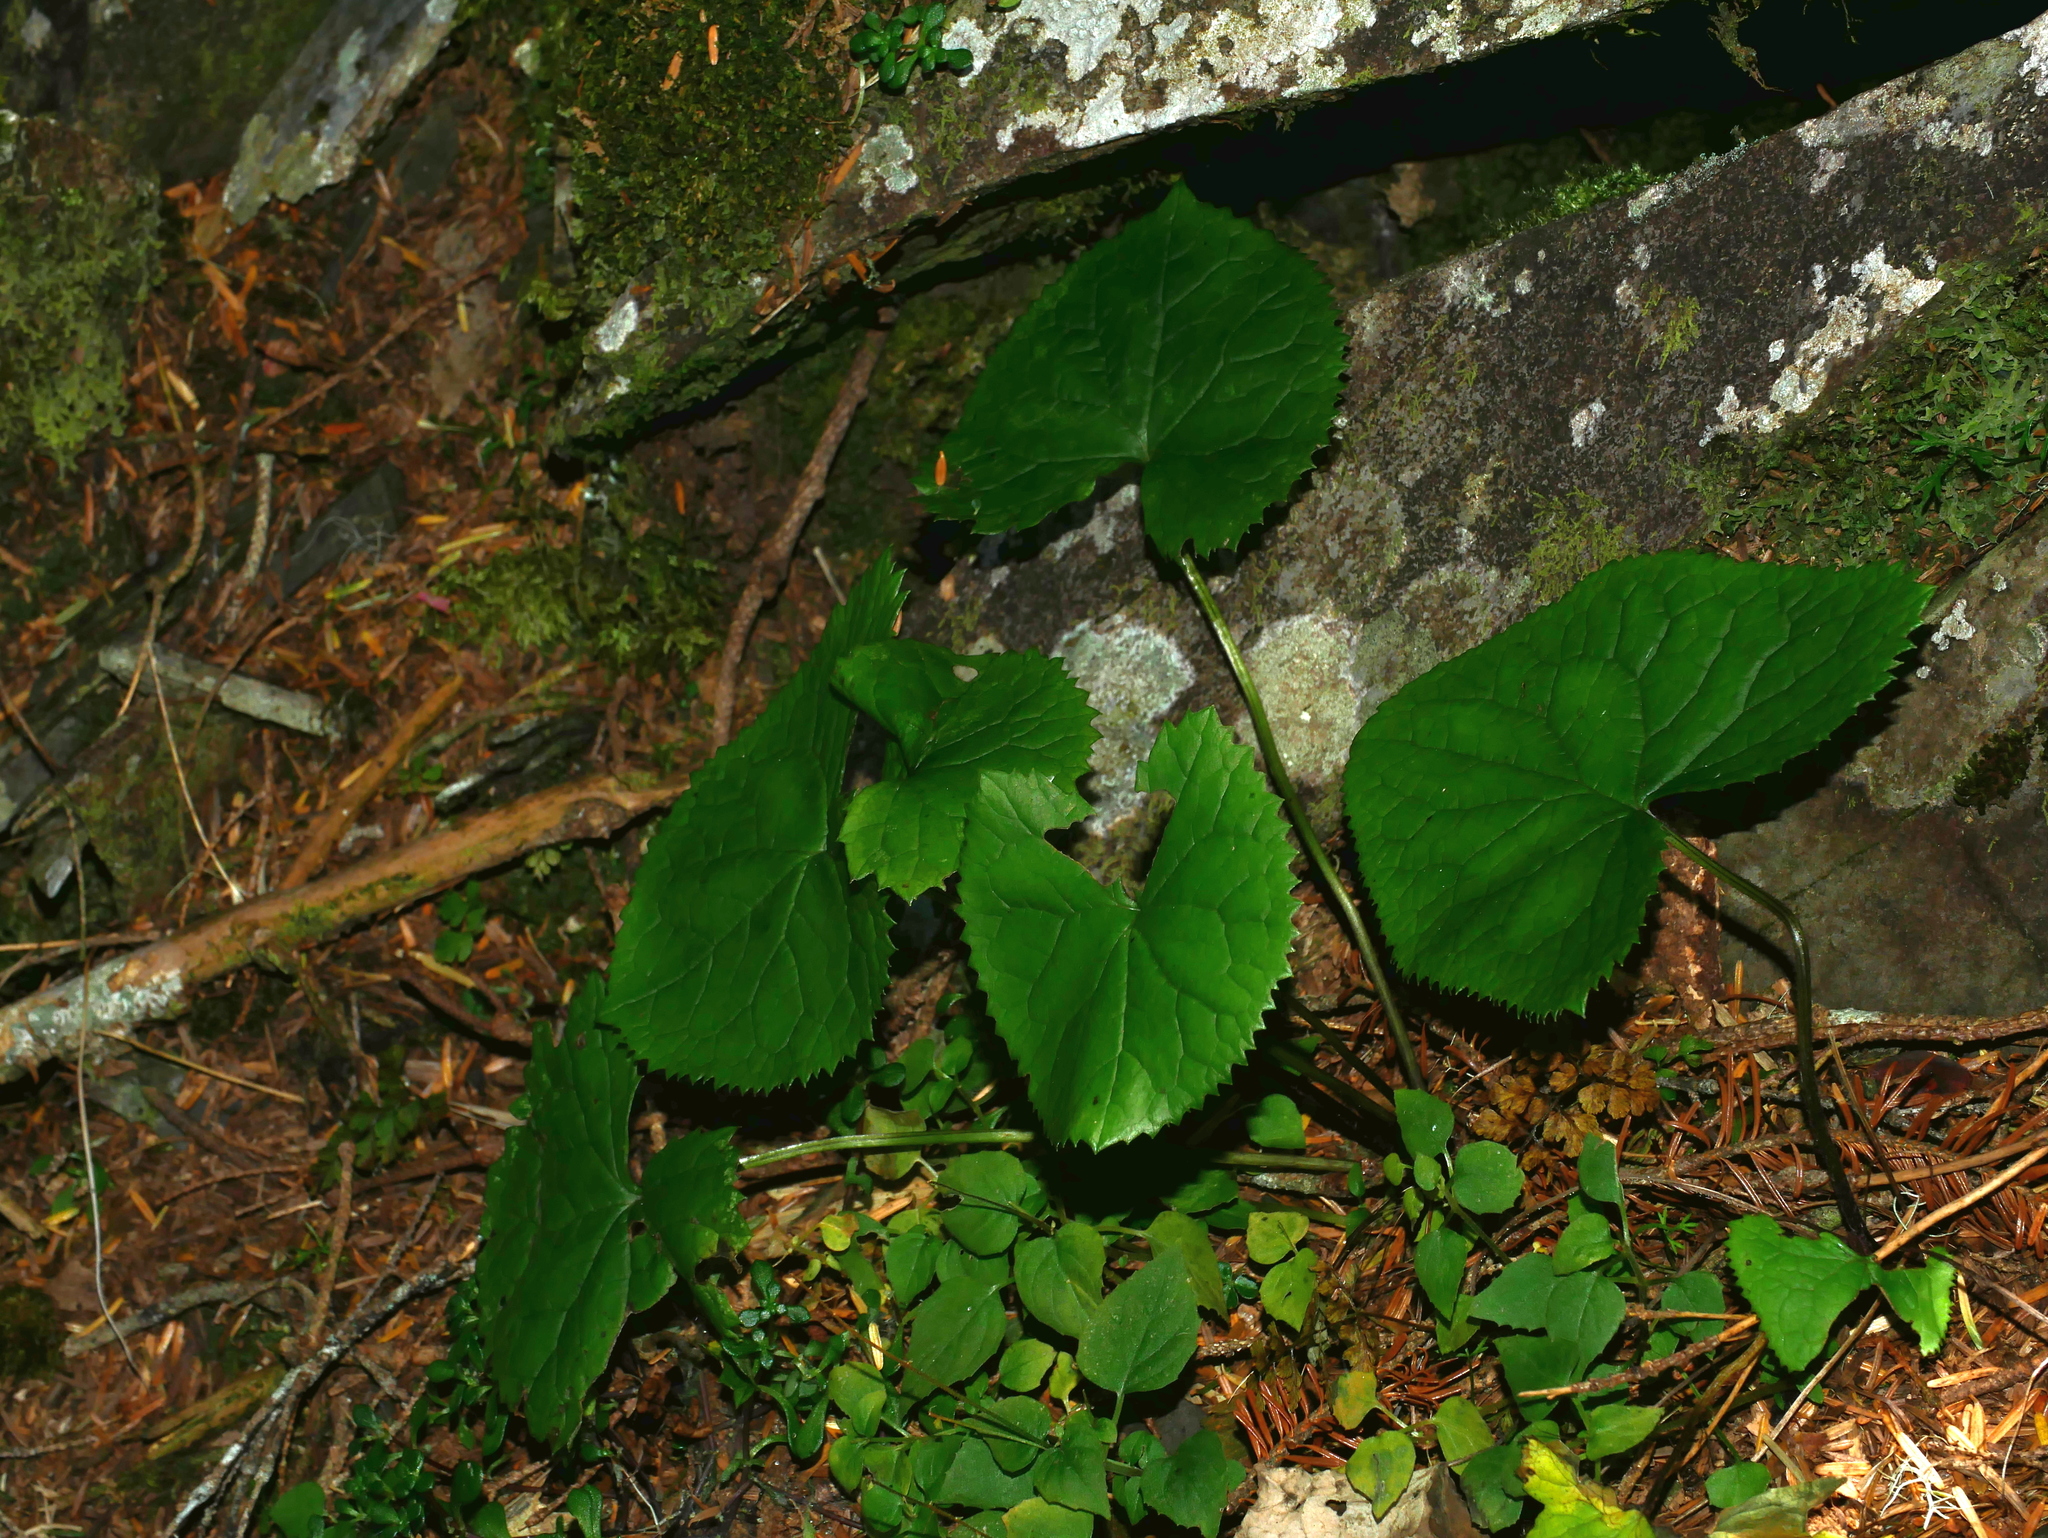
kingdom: Plantae
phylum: Tracheophyta
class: Magnoliopsida
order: Asterales
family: Asteraceae
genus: Ligularia
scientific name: Ligularia kojimae
